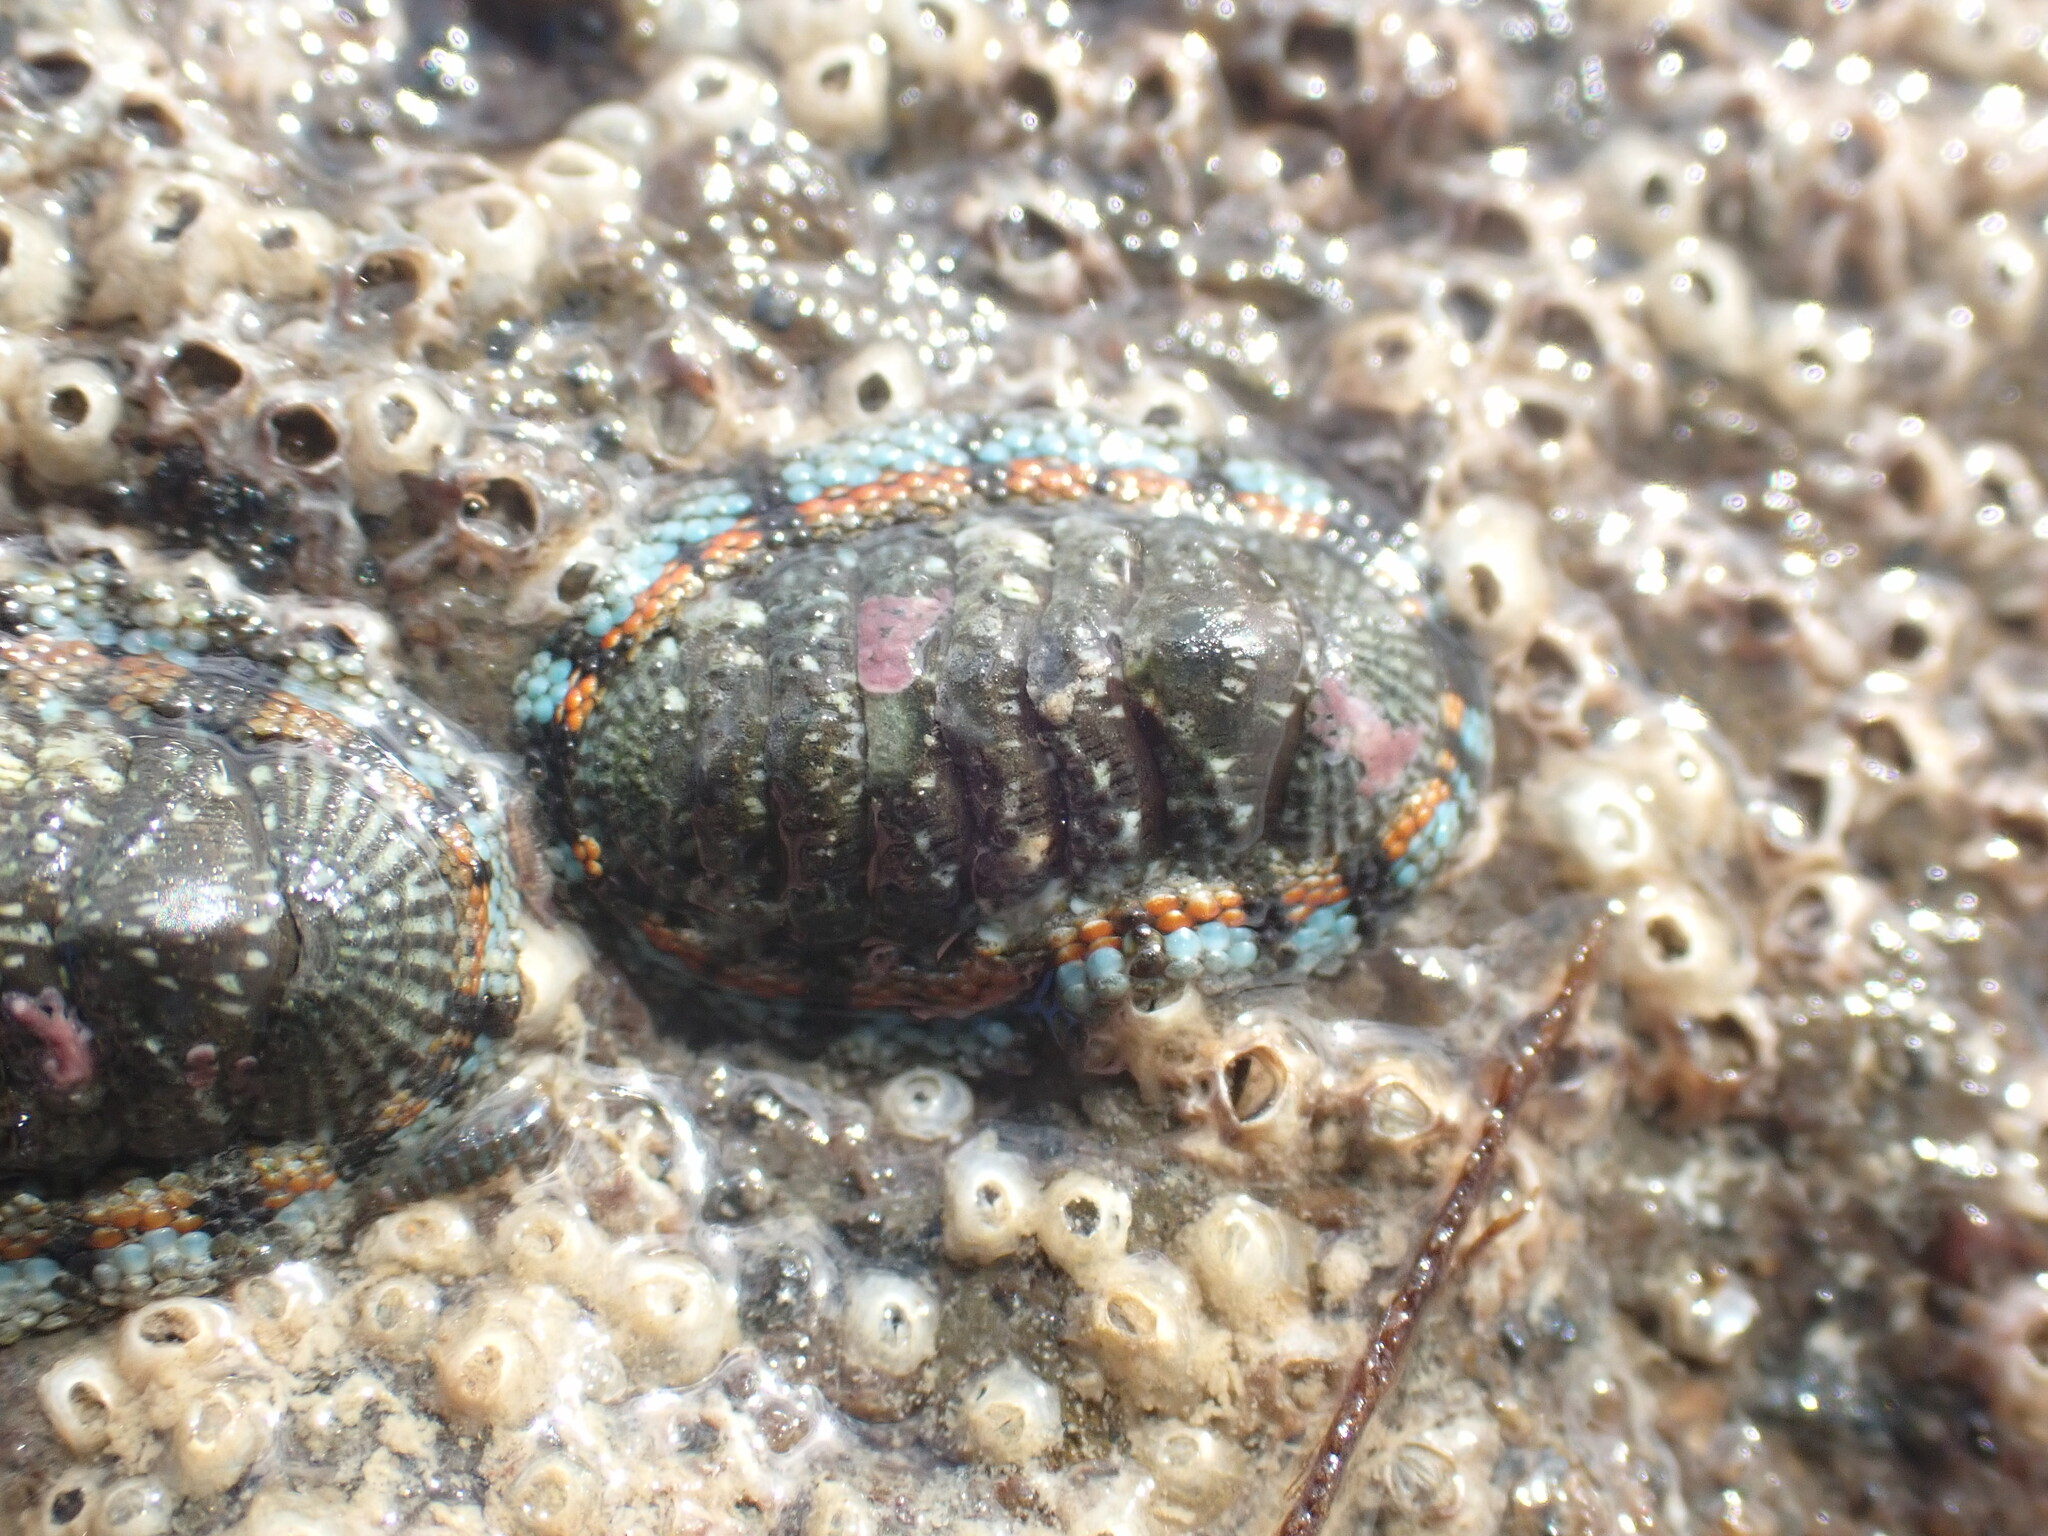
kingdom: Animalia
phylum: Mollusca
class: Polyplacophora
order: Chitonida
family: Chitonidae
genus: Sypharochiton
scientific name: Sypharochiton sinclairi
